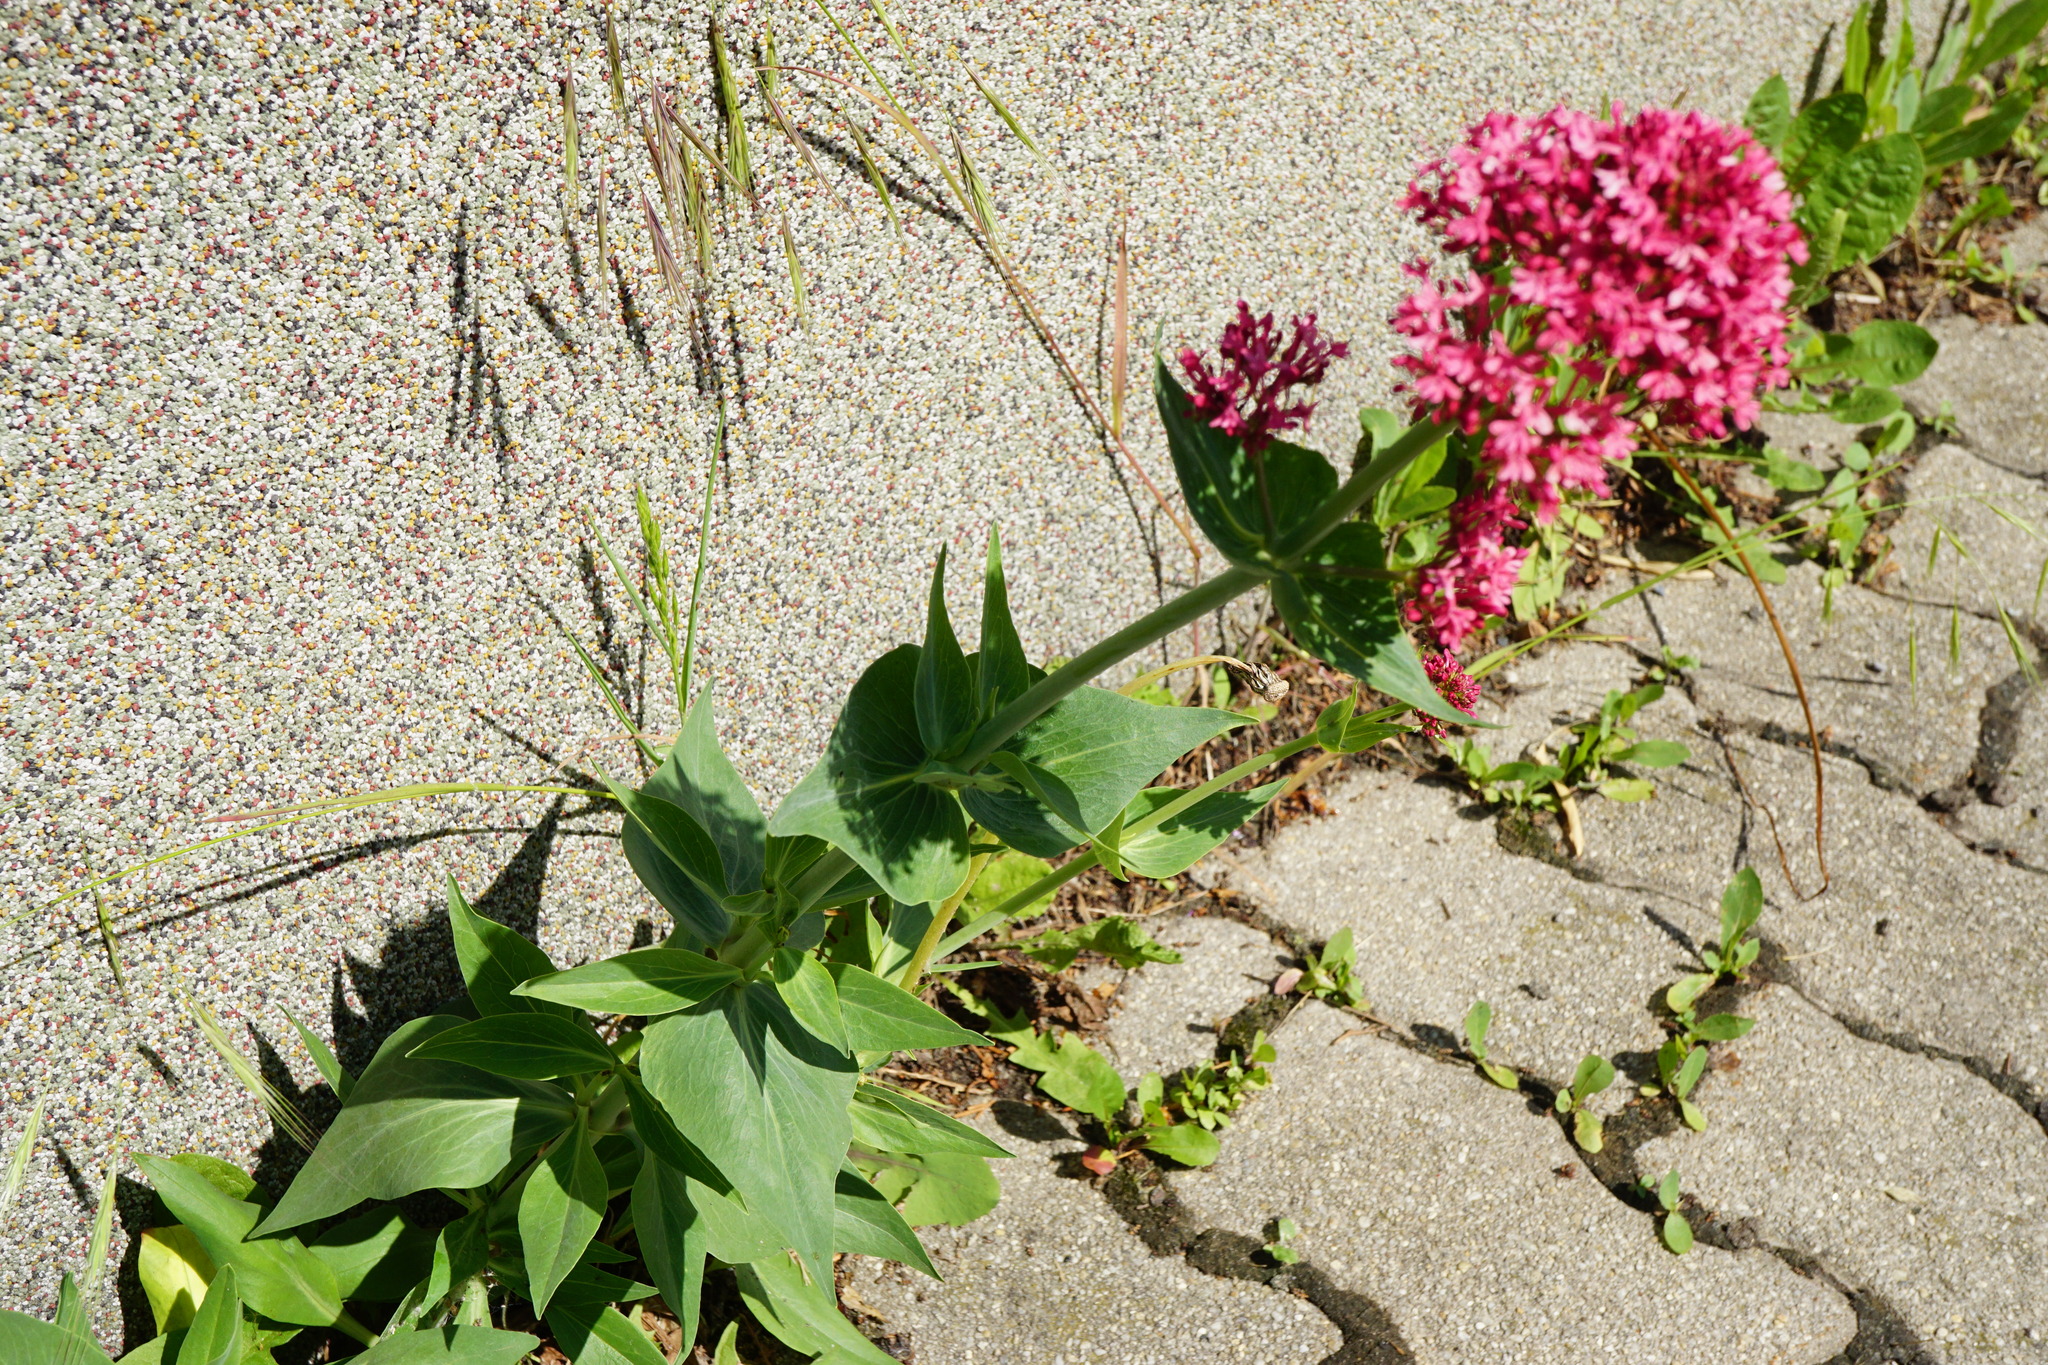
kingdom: Plantae
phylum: Tracheophyta
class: Magnoliopsida
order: Dipsacales
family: Caprifoliaceae
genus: Centranthus
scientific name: Centranthus ruber
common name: Red valerian
